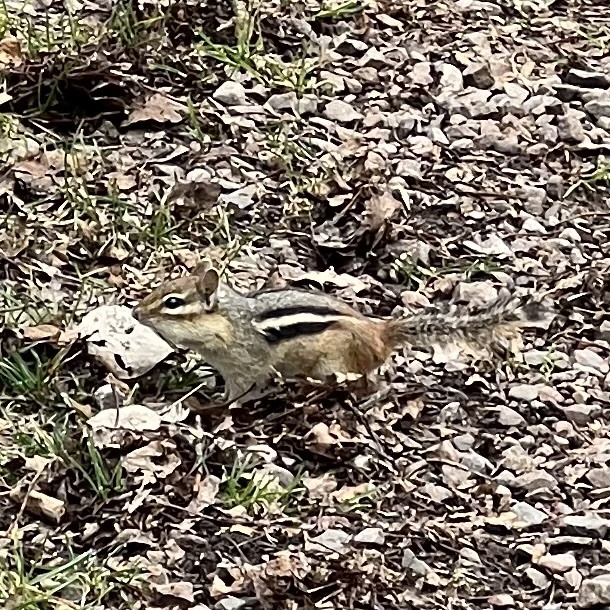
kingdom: Animalia
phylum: Chordata
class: Mammalia
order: Rodentia
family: Sciuridae
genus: Tamias
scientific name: Tamias striatus
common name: Eastern chipmunk
